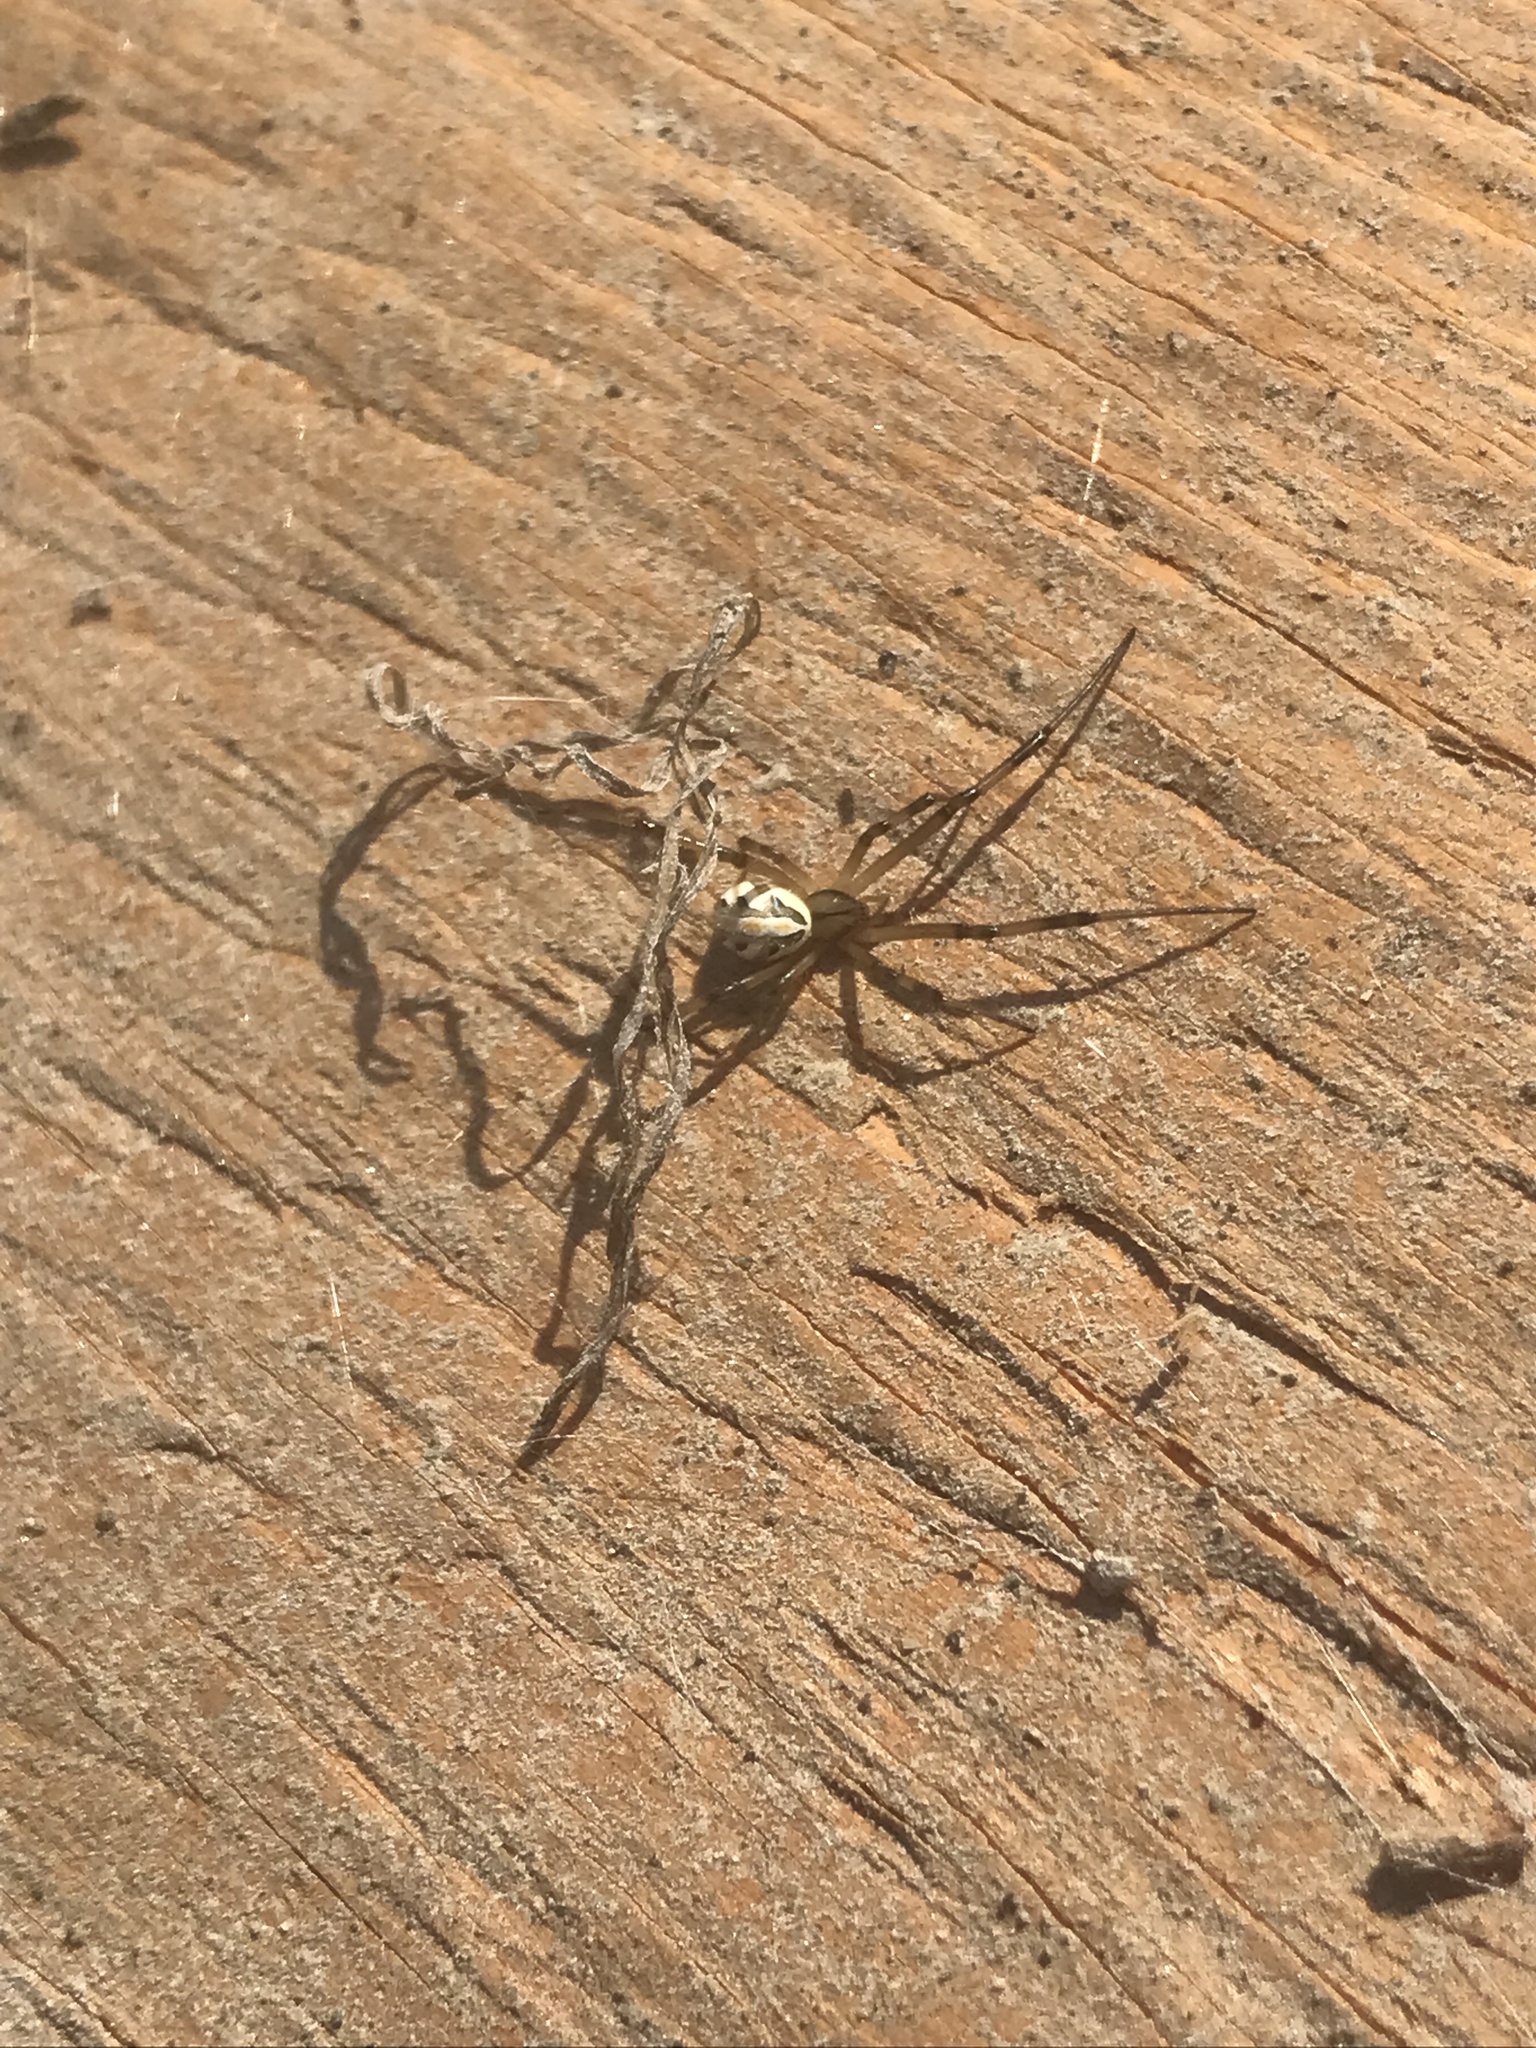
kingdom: Animalia
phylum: Arthropoda
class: Arachnida
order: Araneae
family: Theridiidae
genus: Latrodectus
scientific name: Latrodectus hesperus
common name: Western black widow
